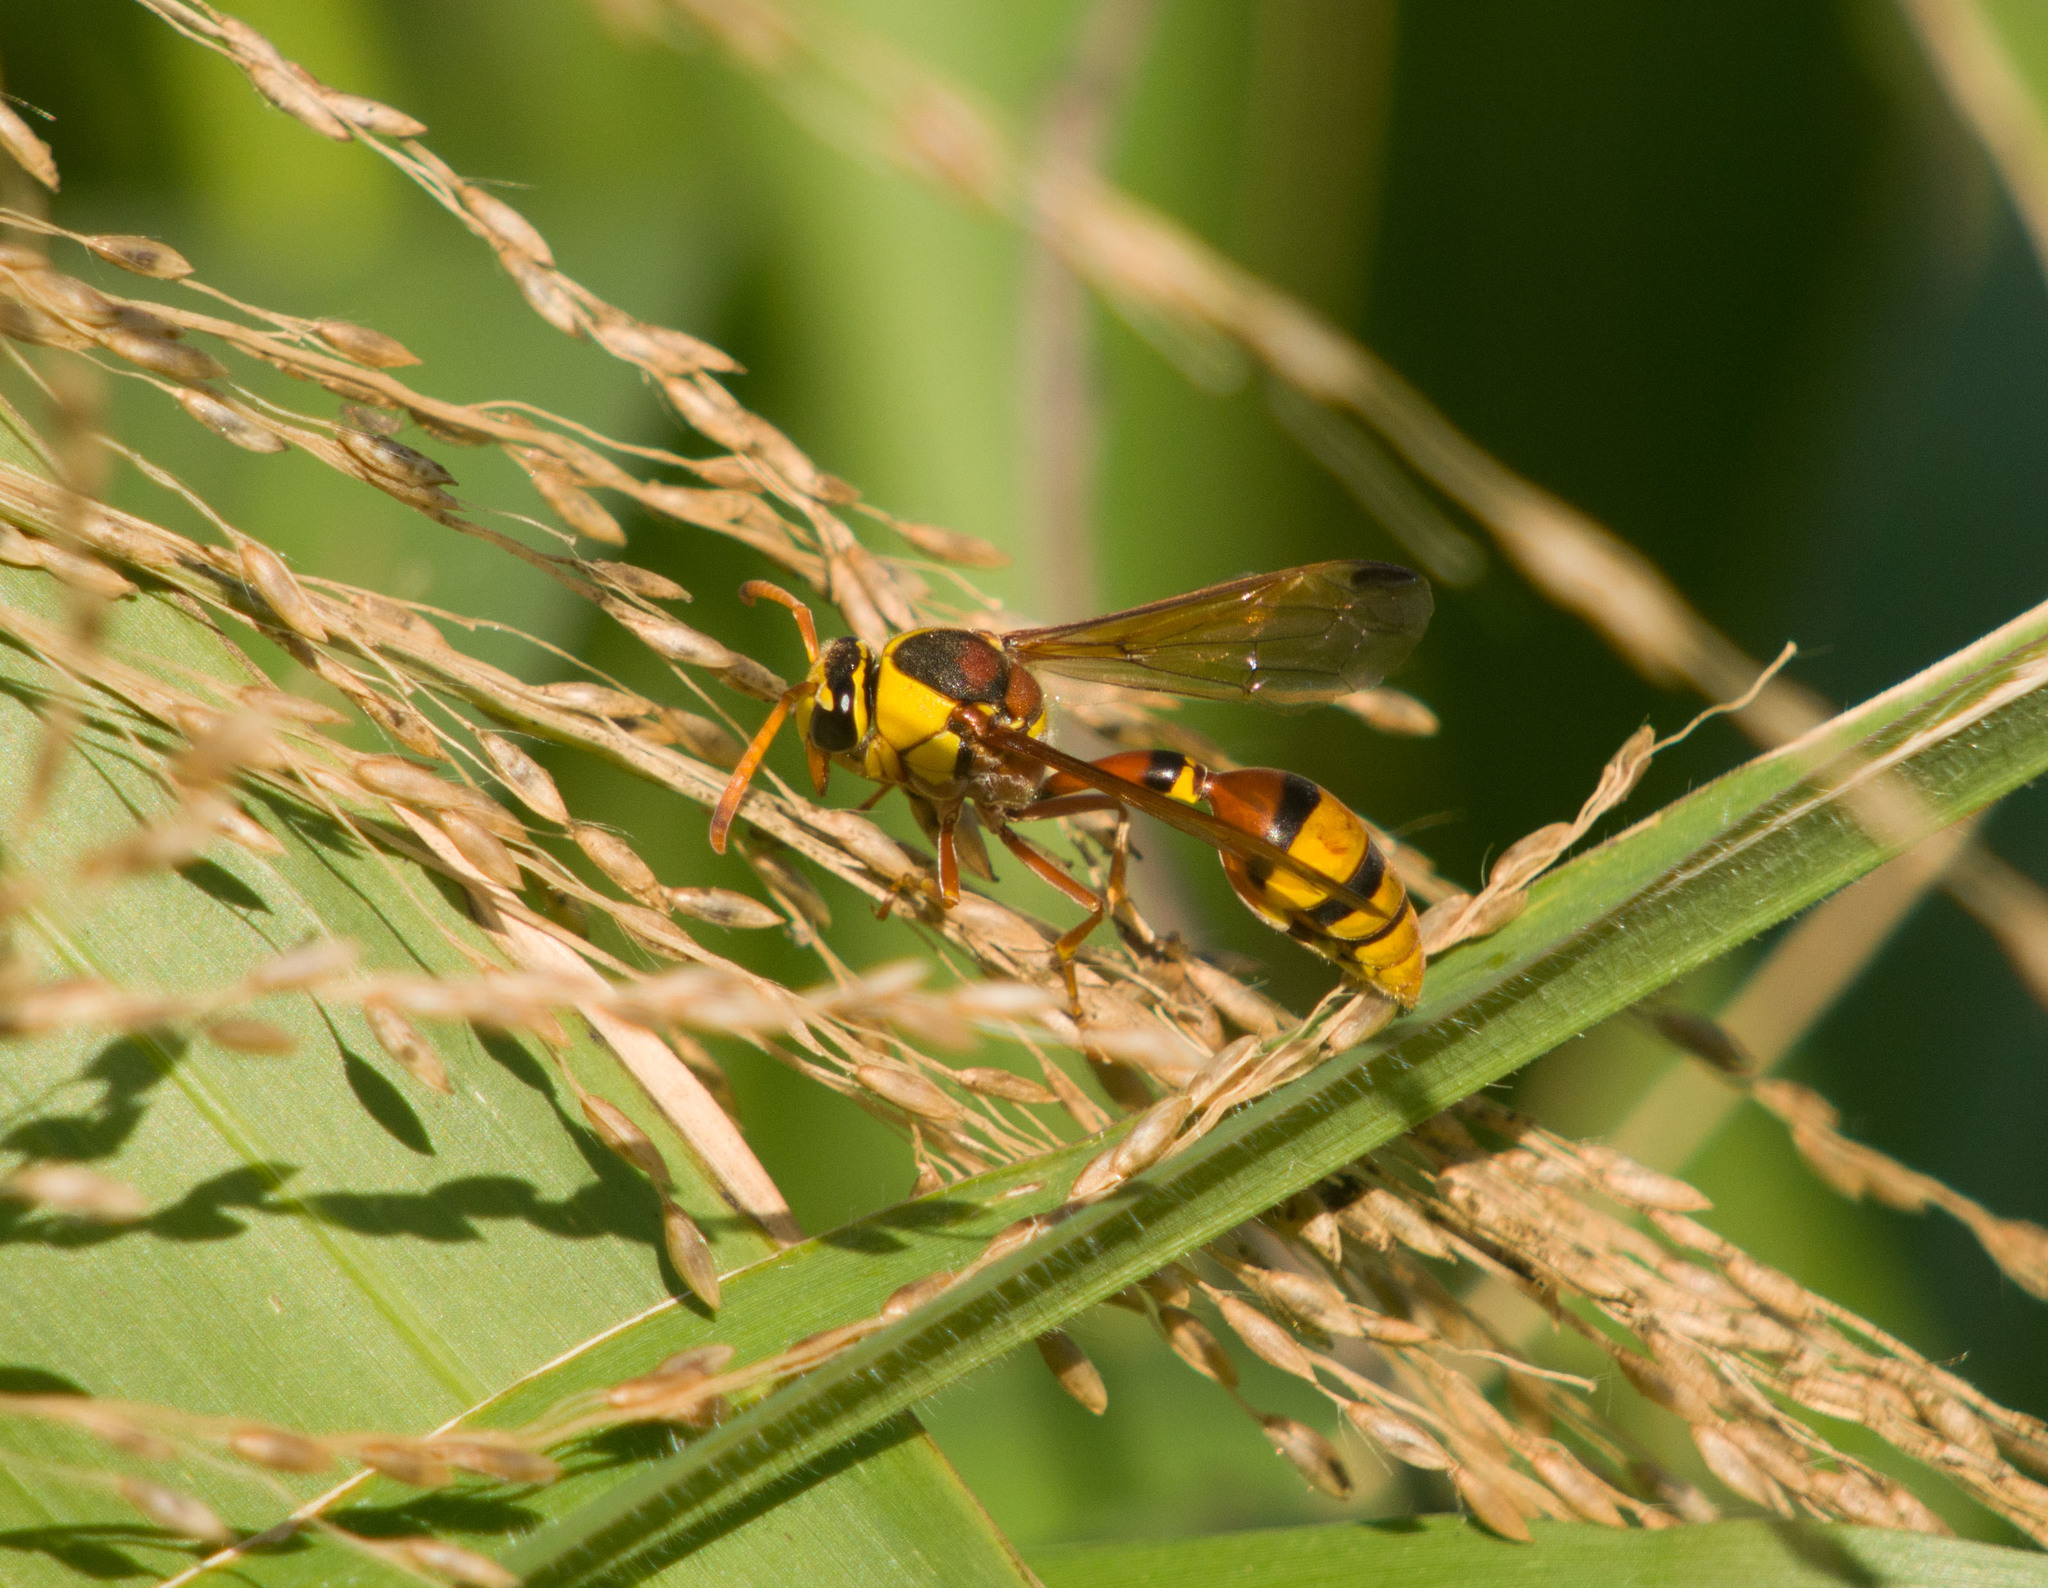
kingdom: Animalia
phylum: Arthropoda
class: Insecta
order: Hymenoptera
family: Eumenidae
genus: Delta
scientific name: Delta esuriens
